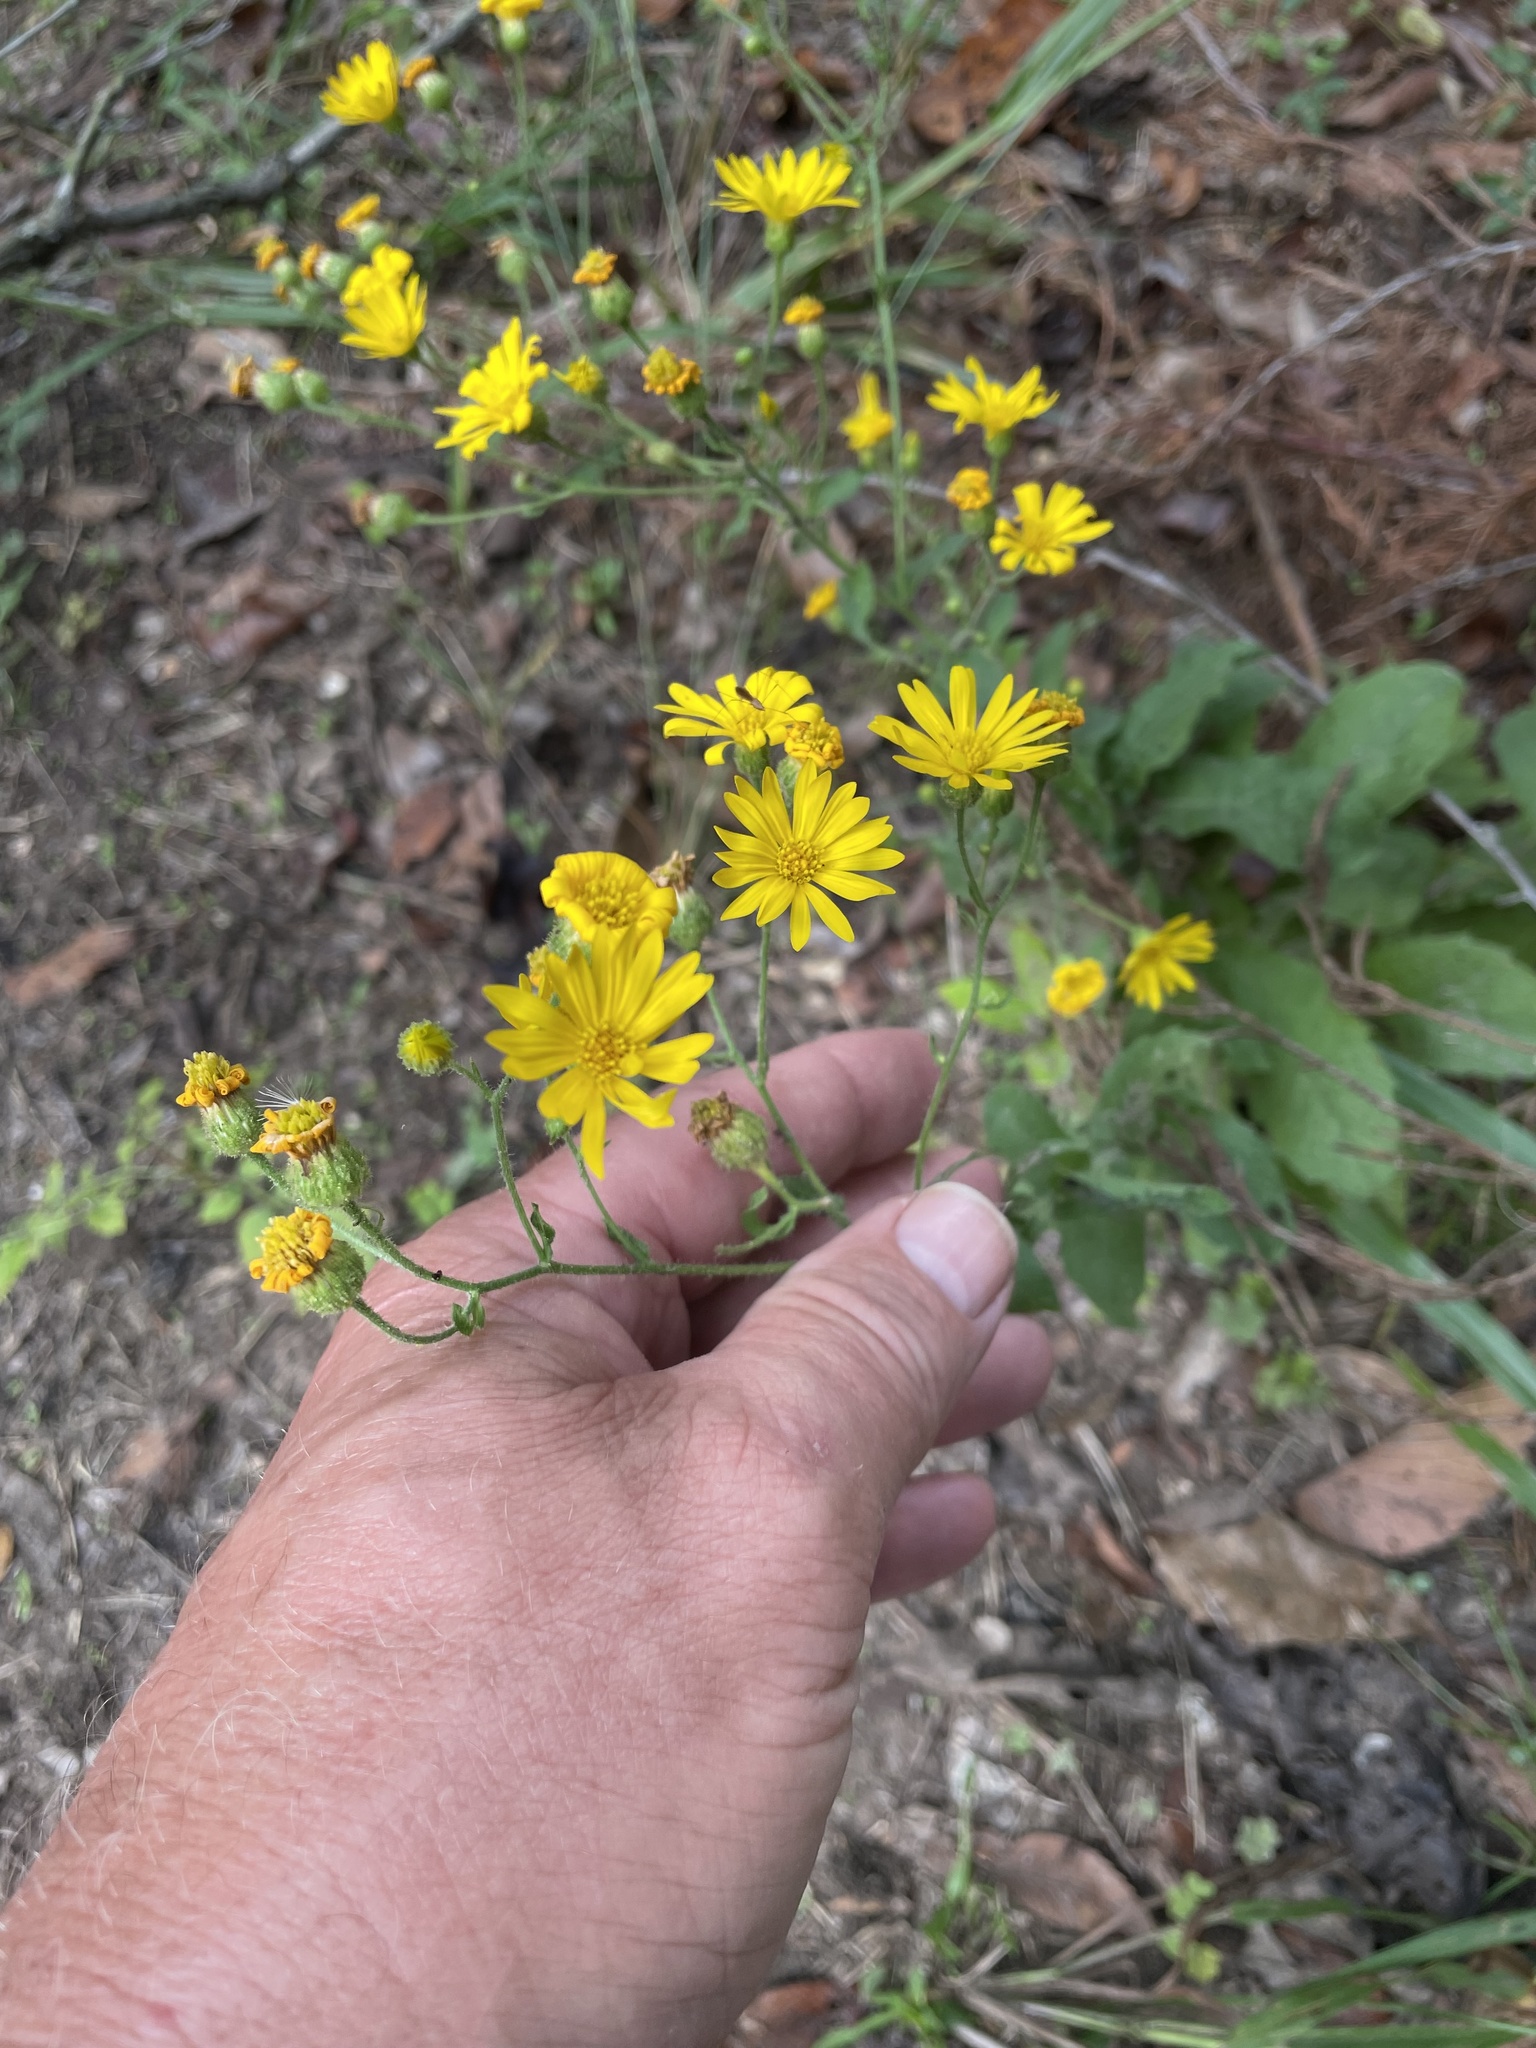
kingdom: Plantae
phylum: Tracheophyta
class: Magnoliopsida
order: Asterales
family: Asteraceae
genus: Heterotheca
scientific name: Heterotheca subaxillaris
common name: Camphorweed
